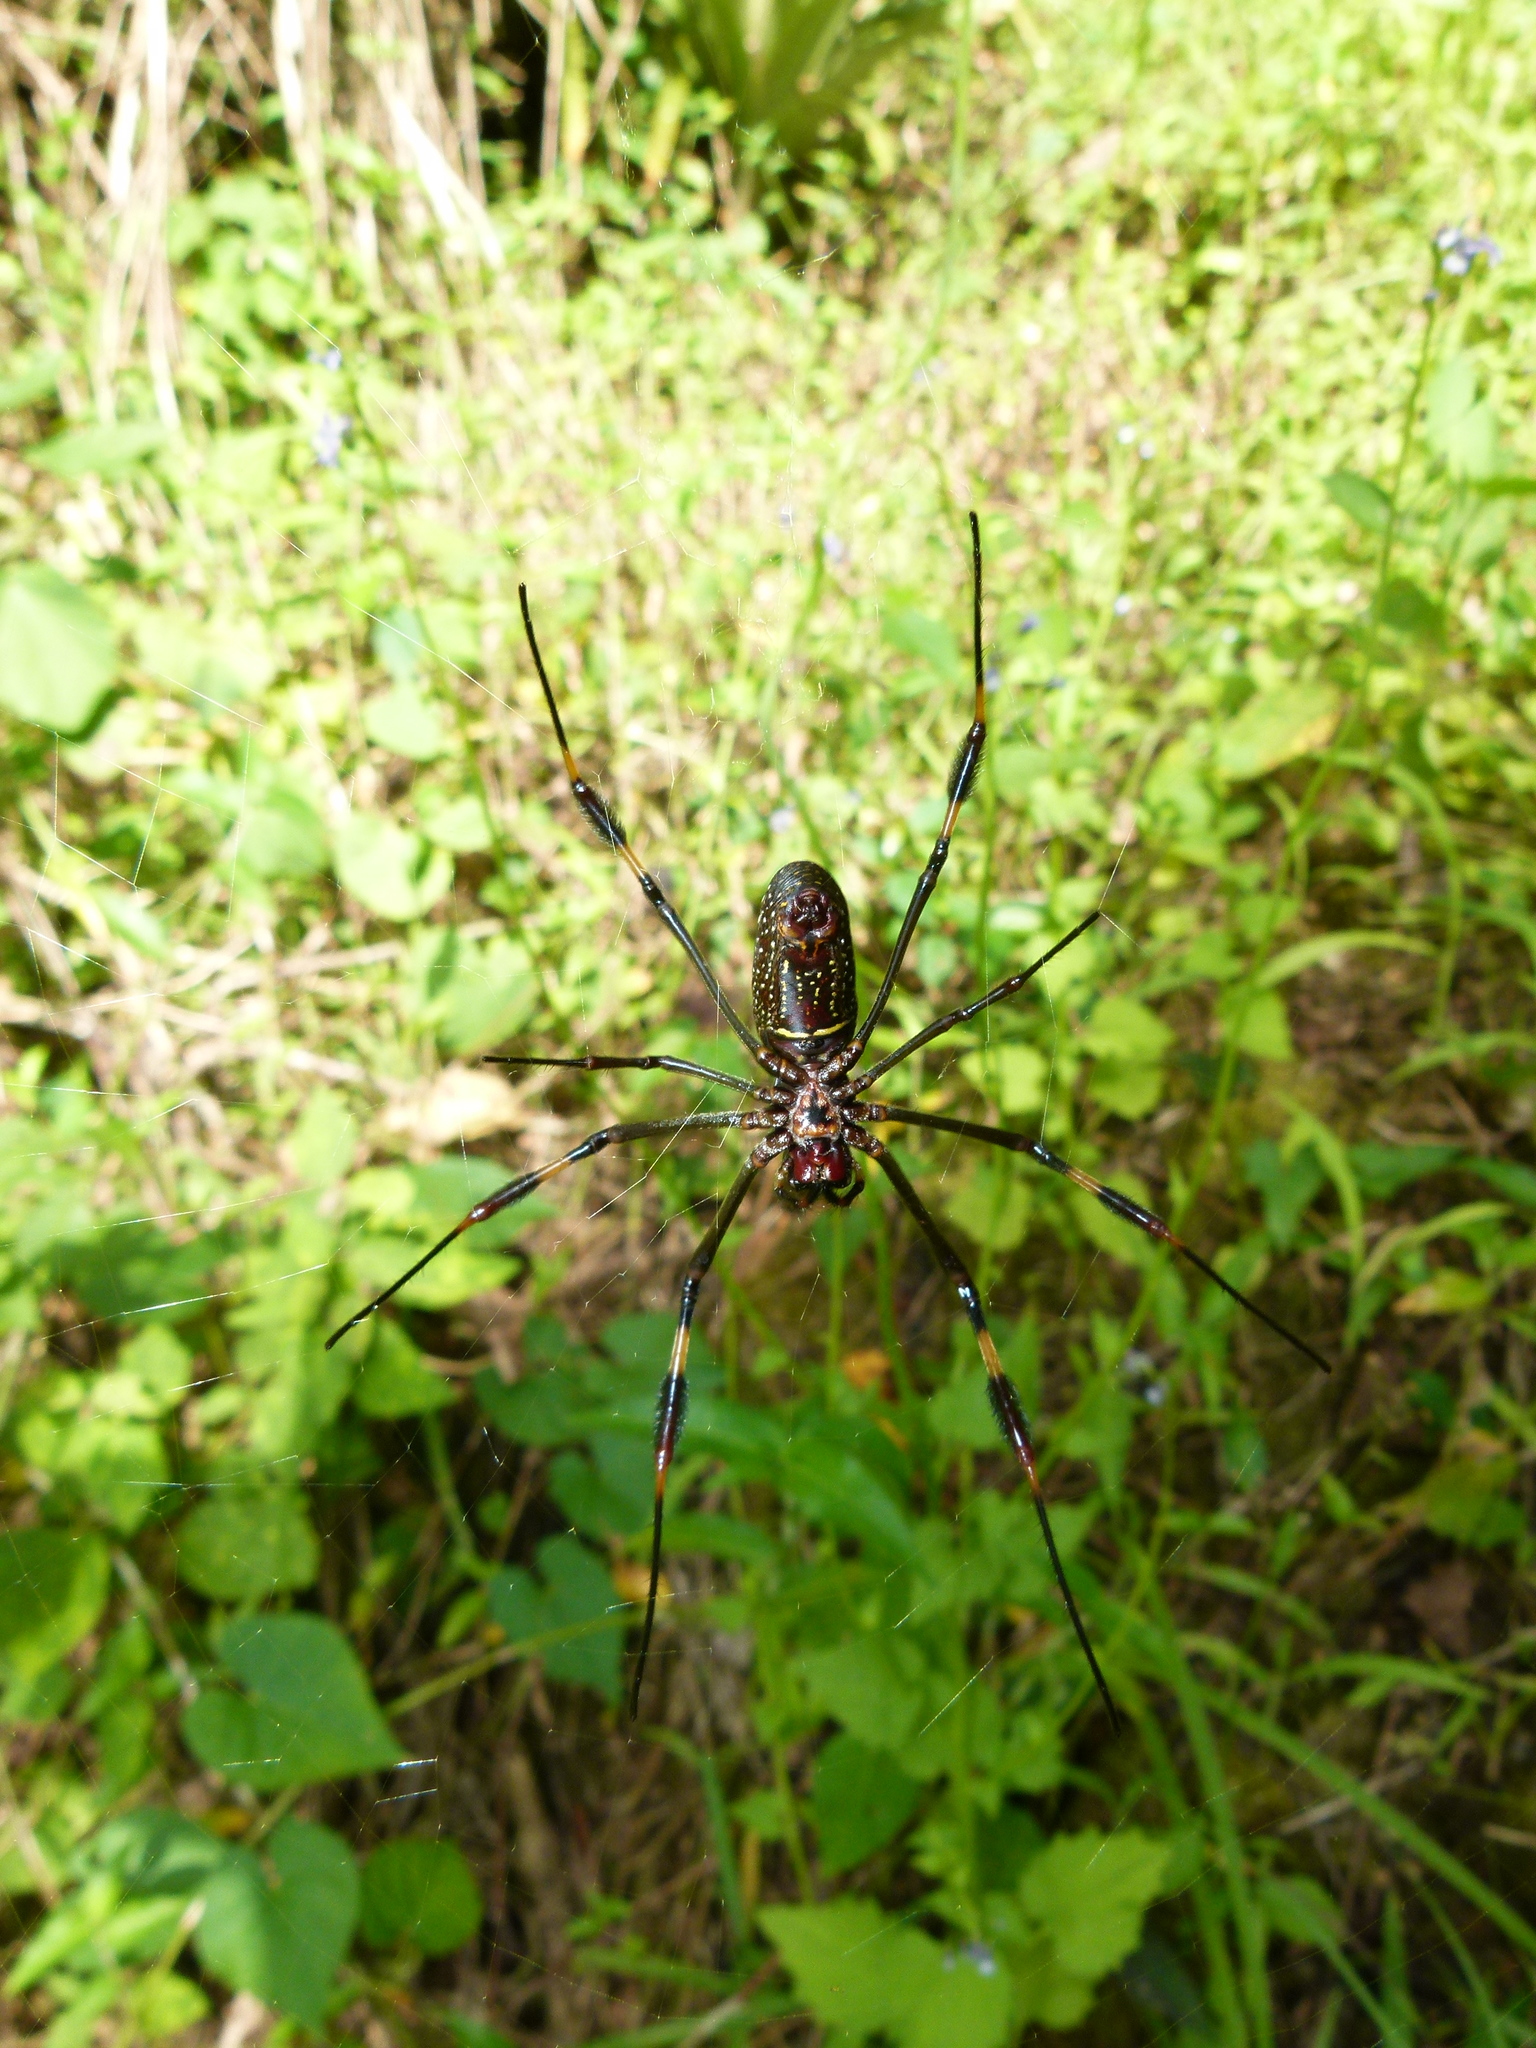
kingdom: Animalia
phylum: Arthropoda
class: Arachnida
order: Araneae
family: Araneidae
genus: Trichonephila
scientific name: Trichonephila clavipes
